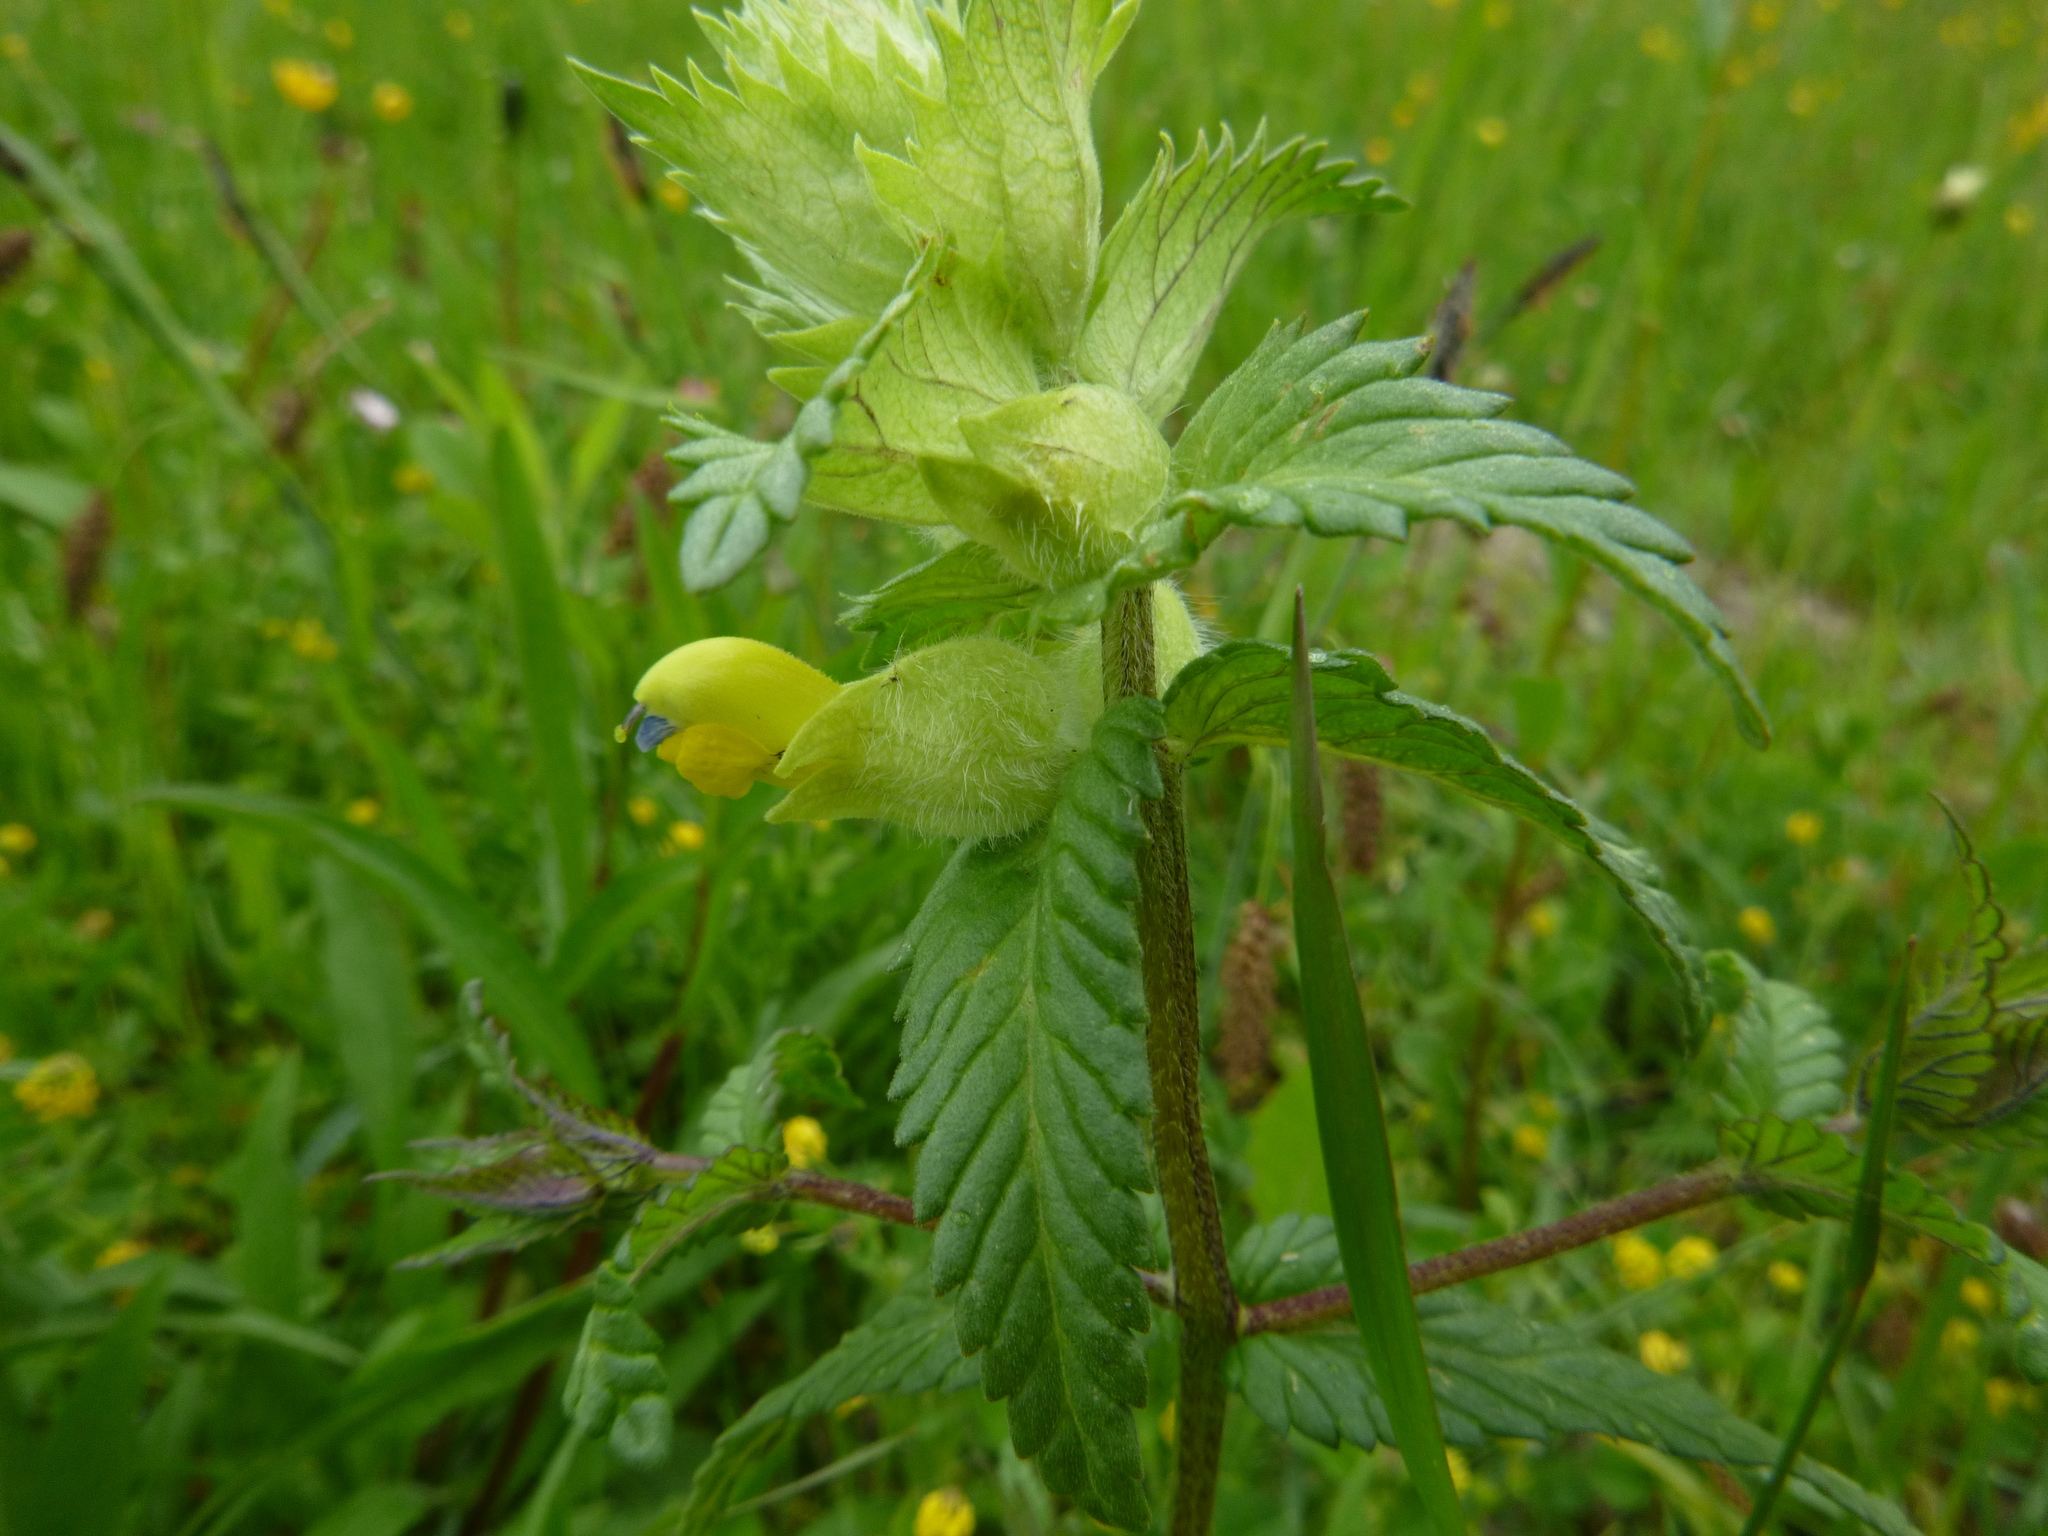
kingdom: Plantae
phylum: Tracheophyta
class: Magnoliopsida
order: Lamiales
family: Orobanchaceae
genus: Rhinanthus
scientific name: Rhinanthus alectorolophus
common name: Greater yellow-rattle
